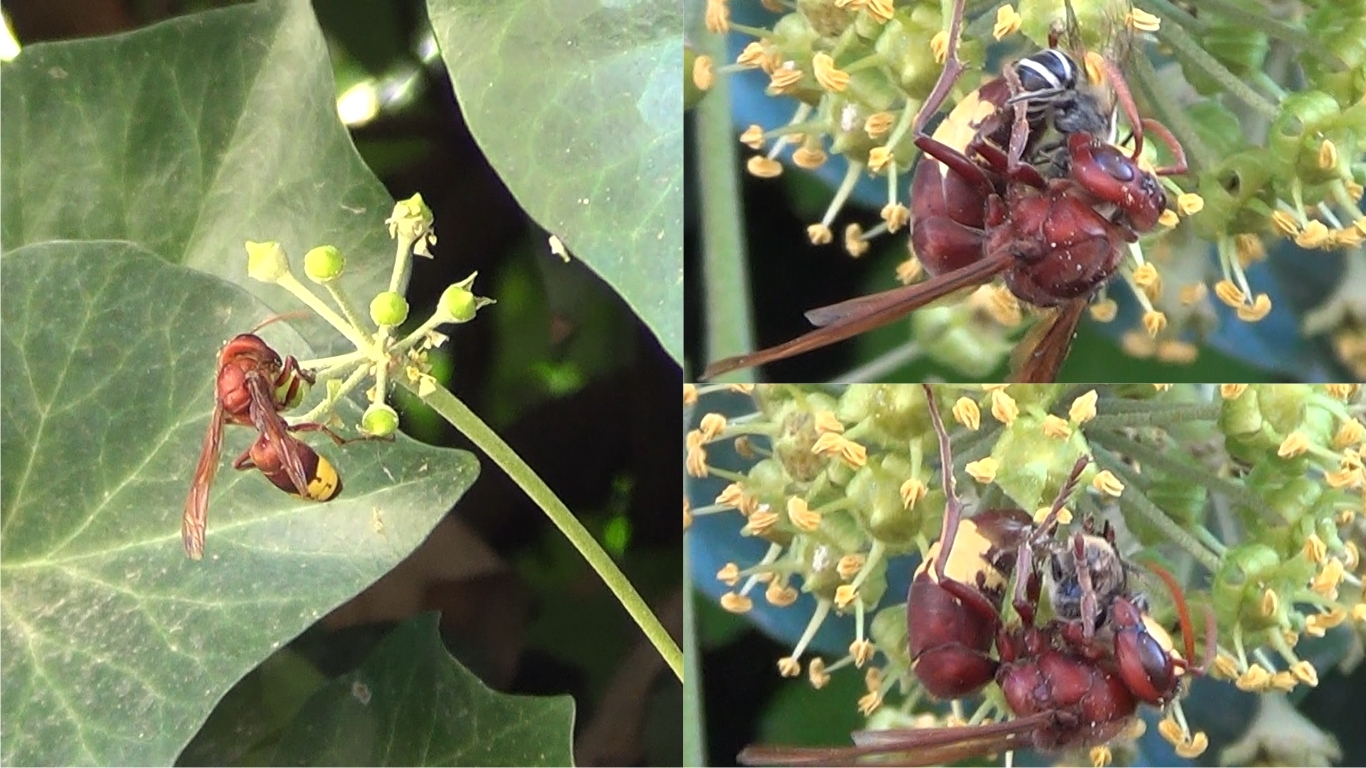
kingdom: Animalia
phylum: Arthropoda
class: Insecta
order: Hymenoptera
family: Vespidae
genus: Vespa
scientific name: Vespa orientalis
